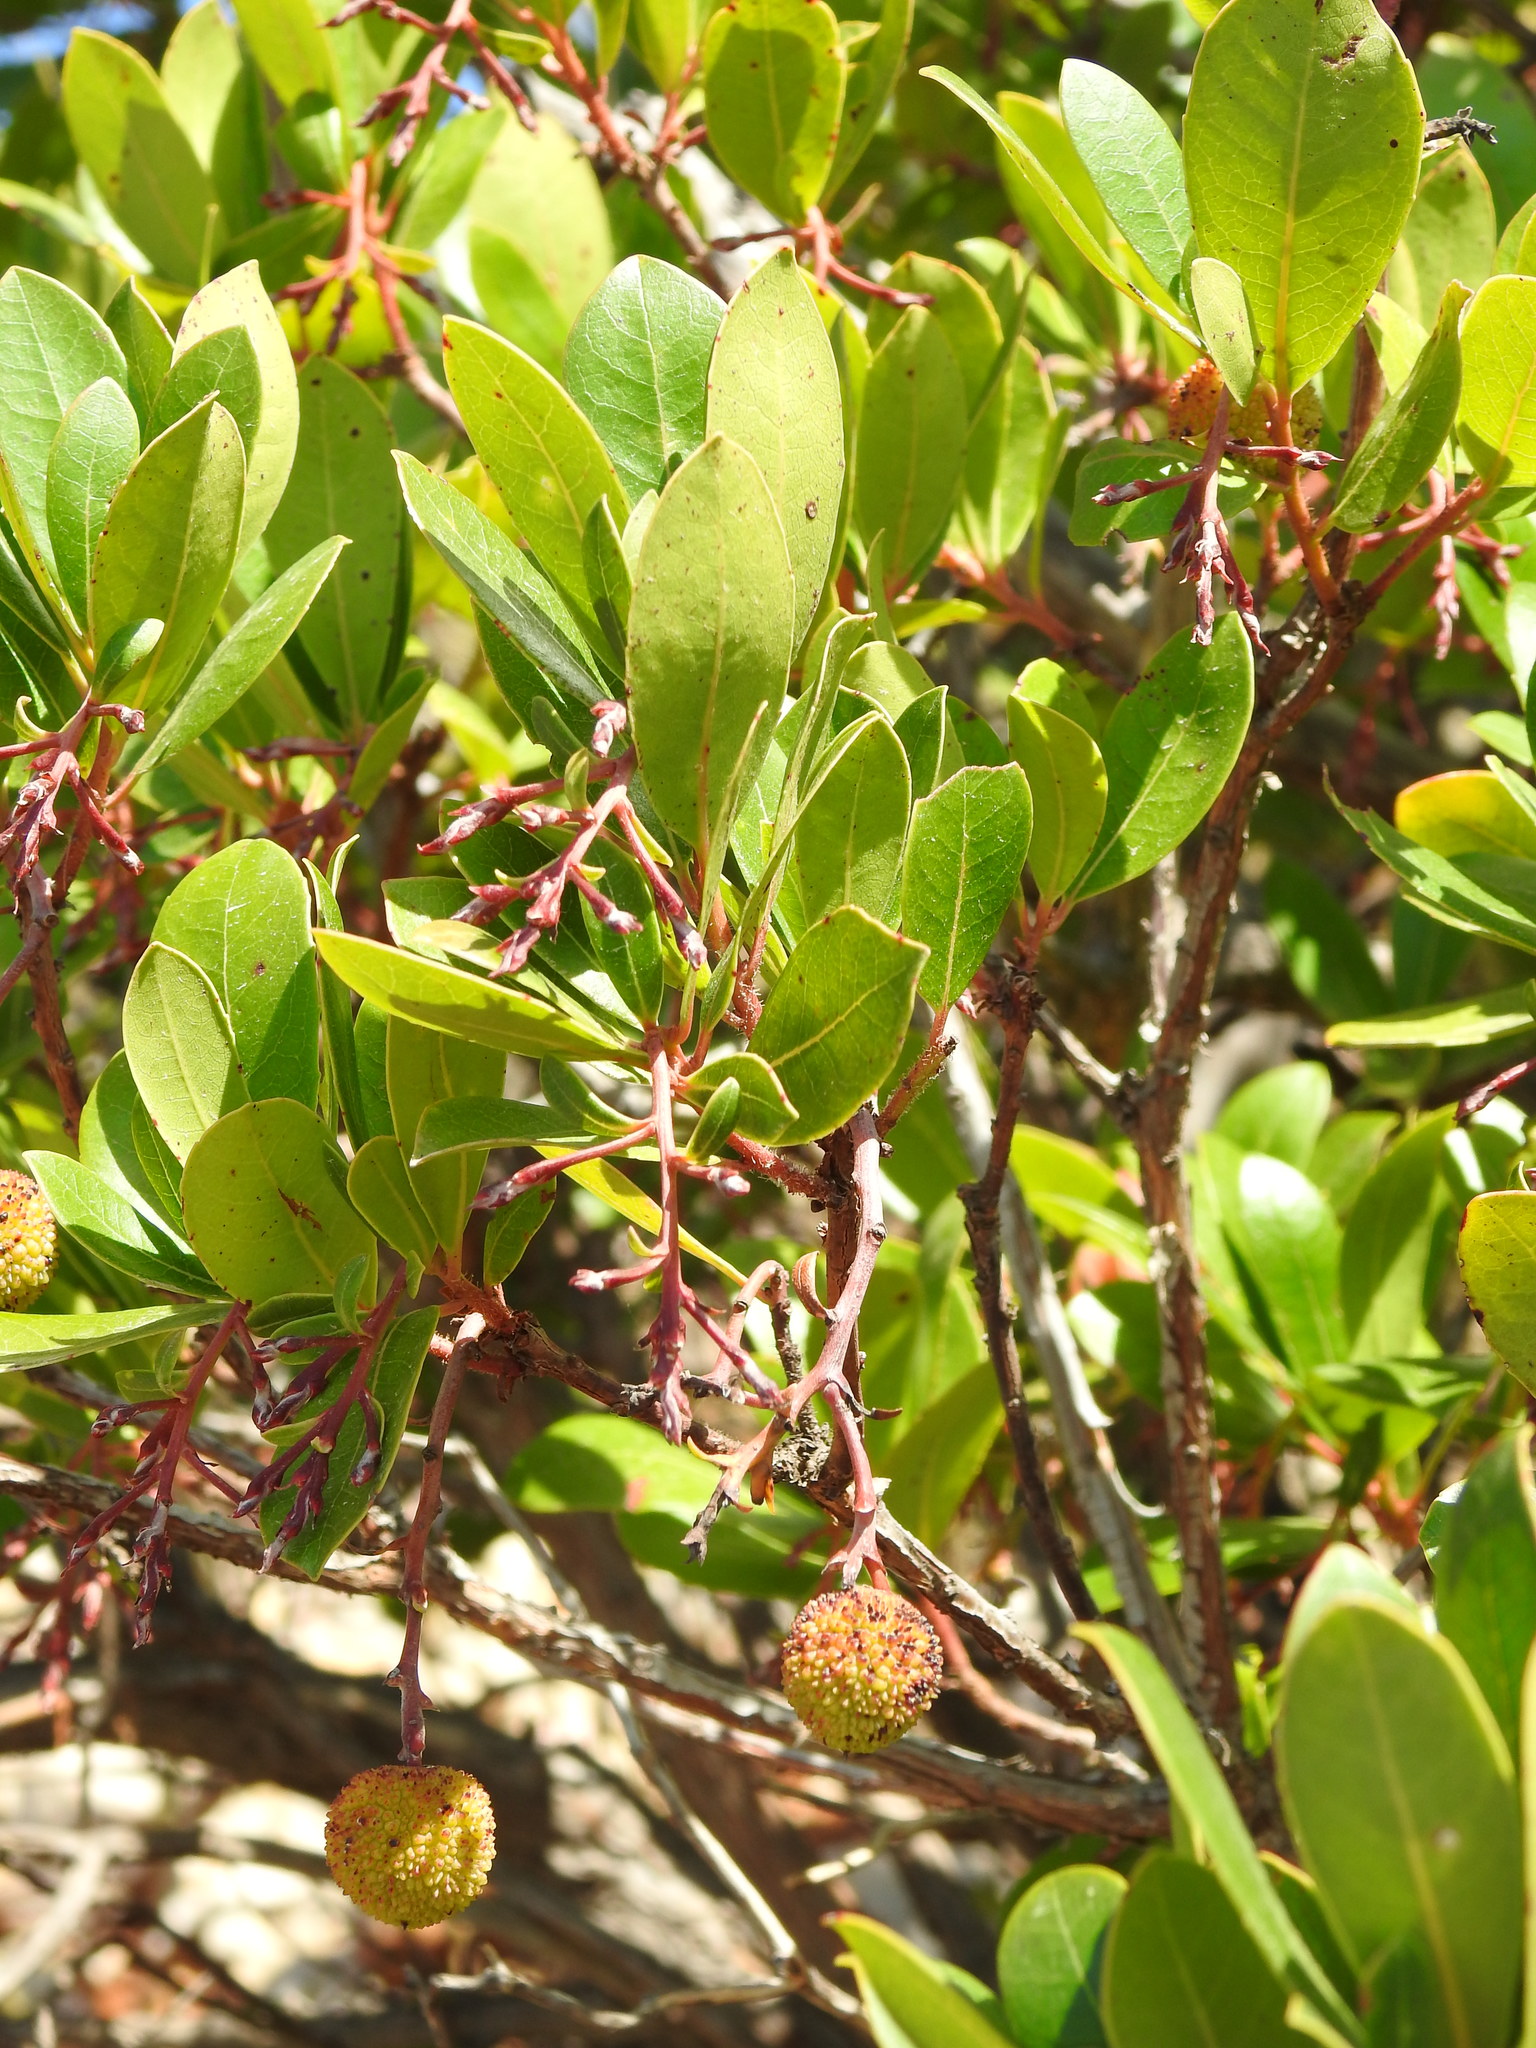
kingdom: Plantae
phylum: Tracheophyta
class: Magnoliopsida
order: Ericales
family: Ericaceae
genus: Arbutus
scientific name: Arbutus unedo
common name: Strawberry-tree
